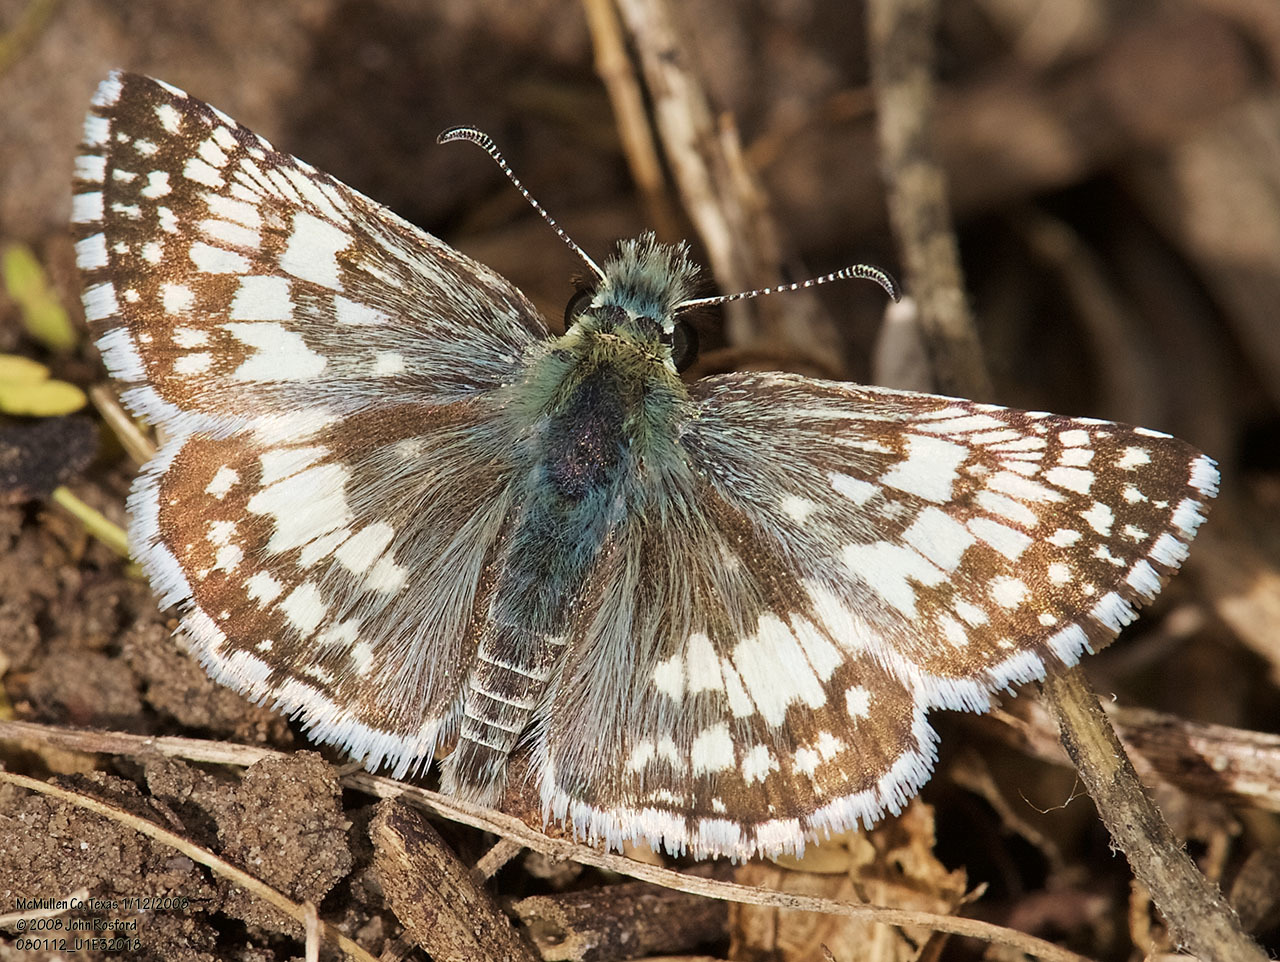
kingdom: Animalia
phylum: Arthropoda
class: Insecta
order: Lepidoptera
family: Hesperiidae
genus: Burnsius
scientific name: Burnsius
